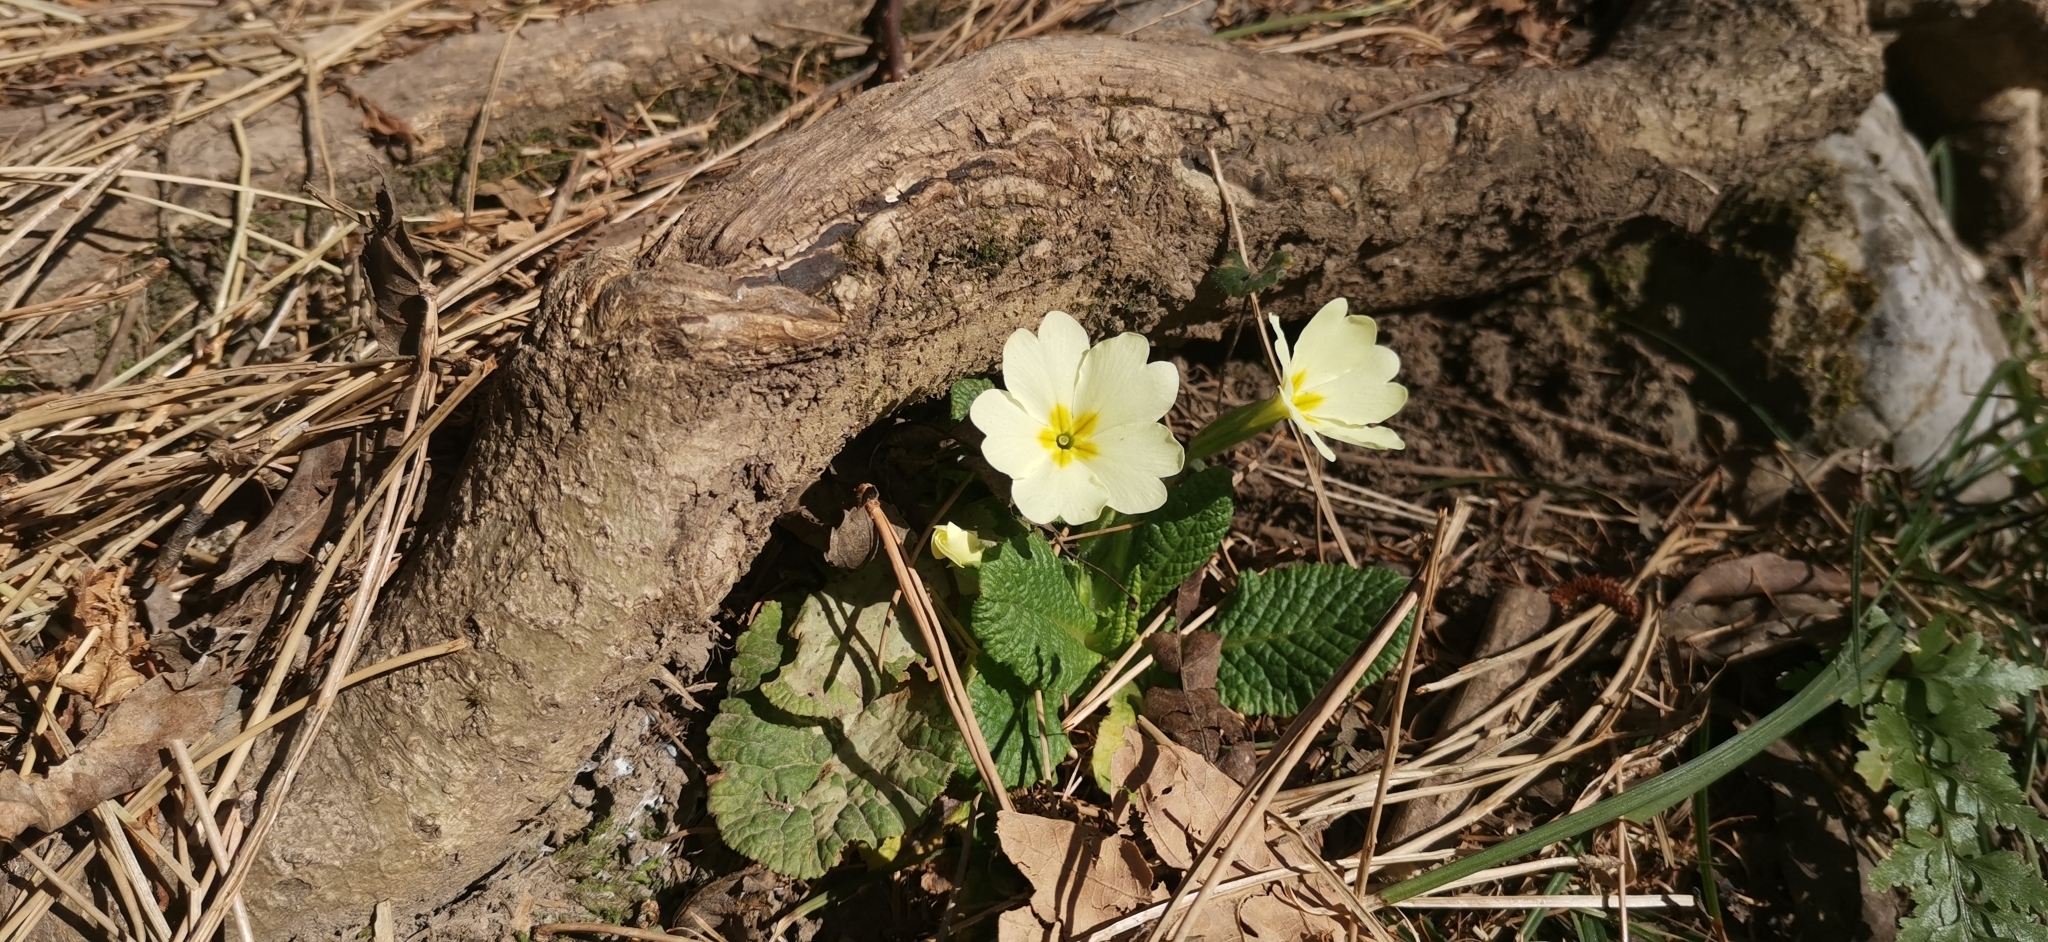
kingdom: Plantae
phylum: Tracheophyta
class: Magnoliopsida
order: Ericales
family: Primulaceae
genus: Primula
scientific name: Primula vulgaris
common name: Primrose
